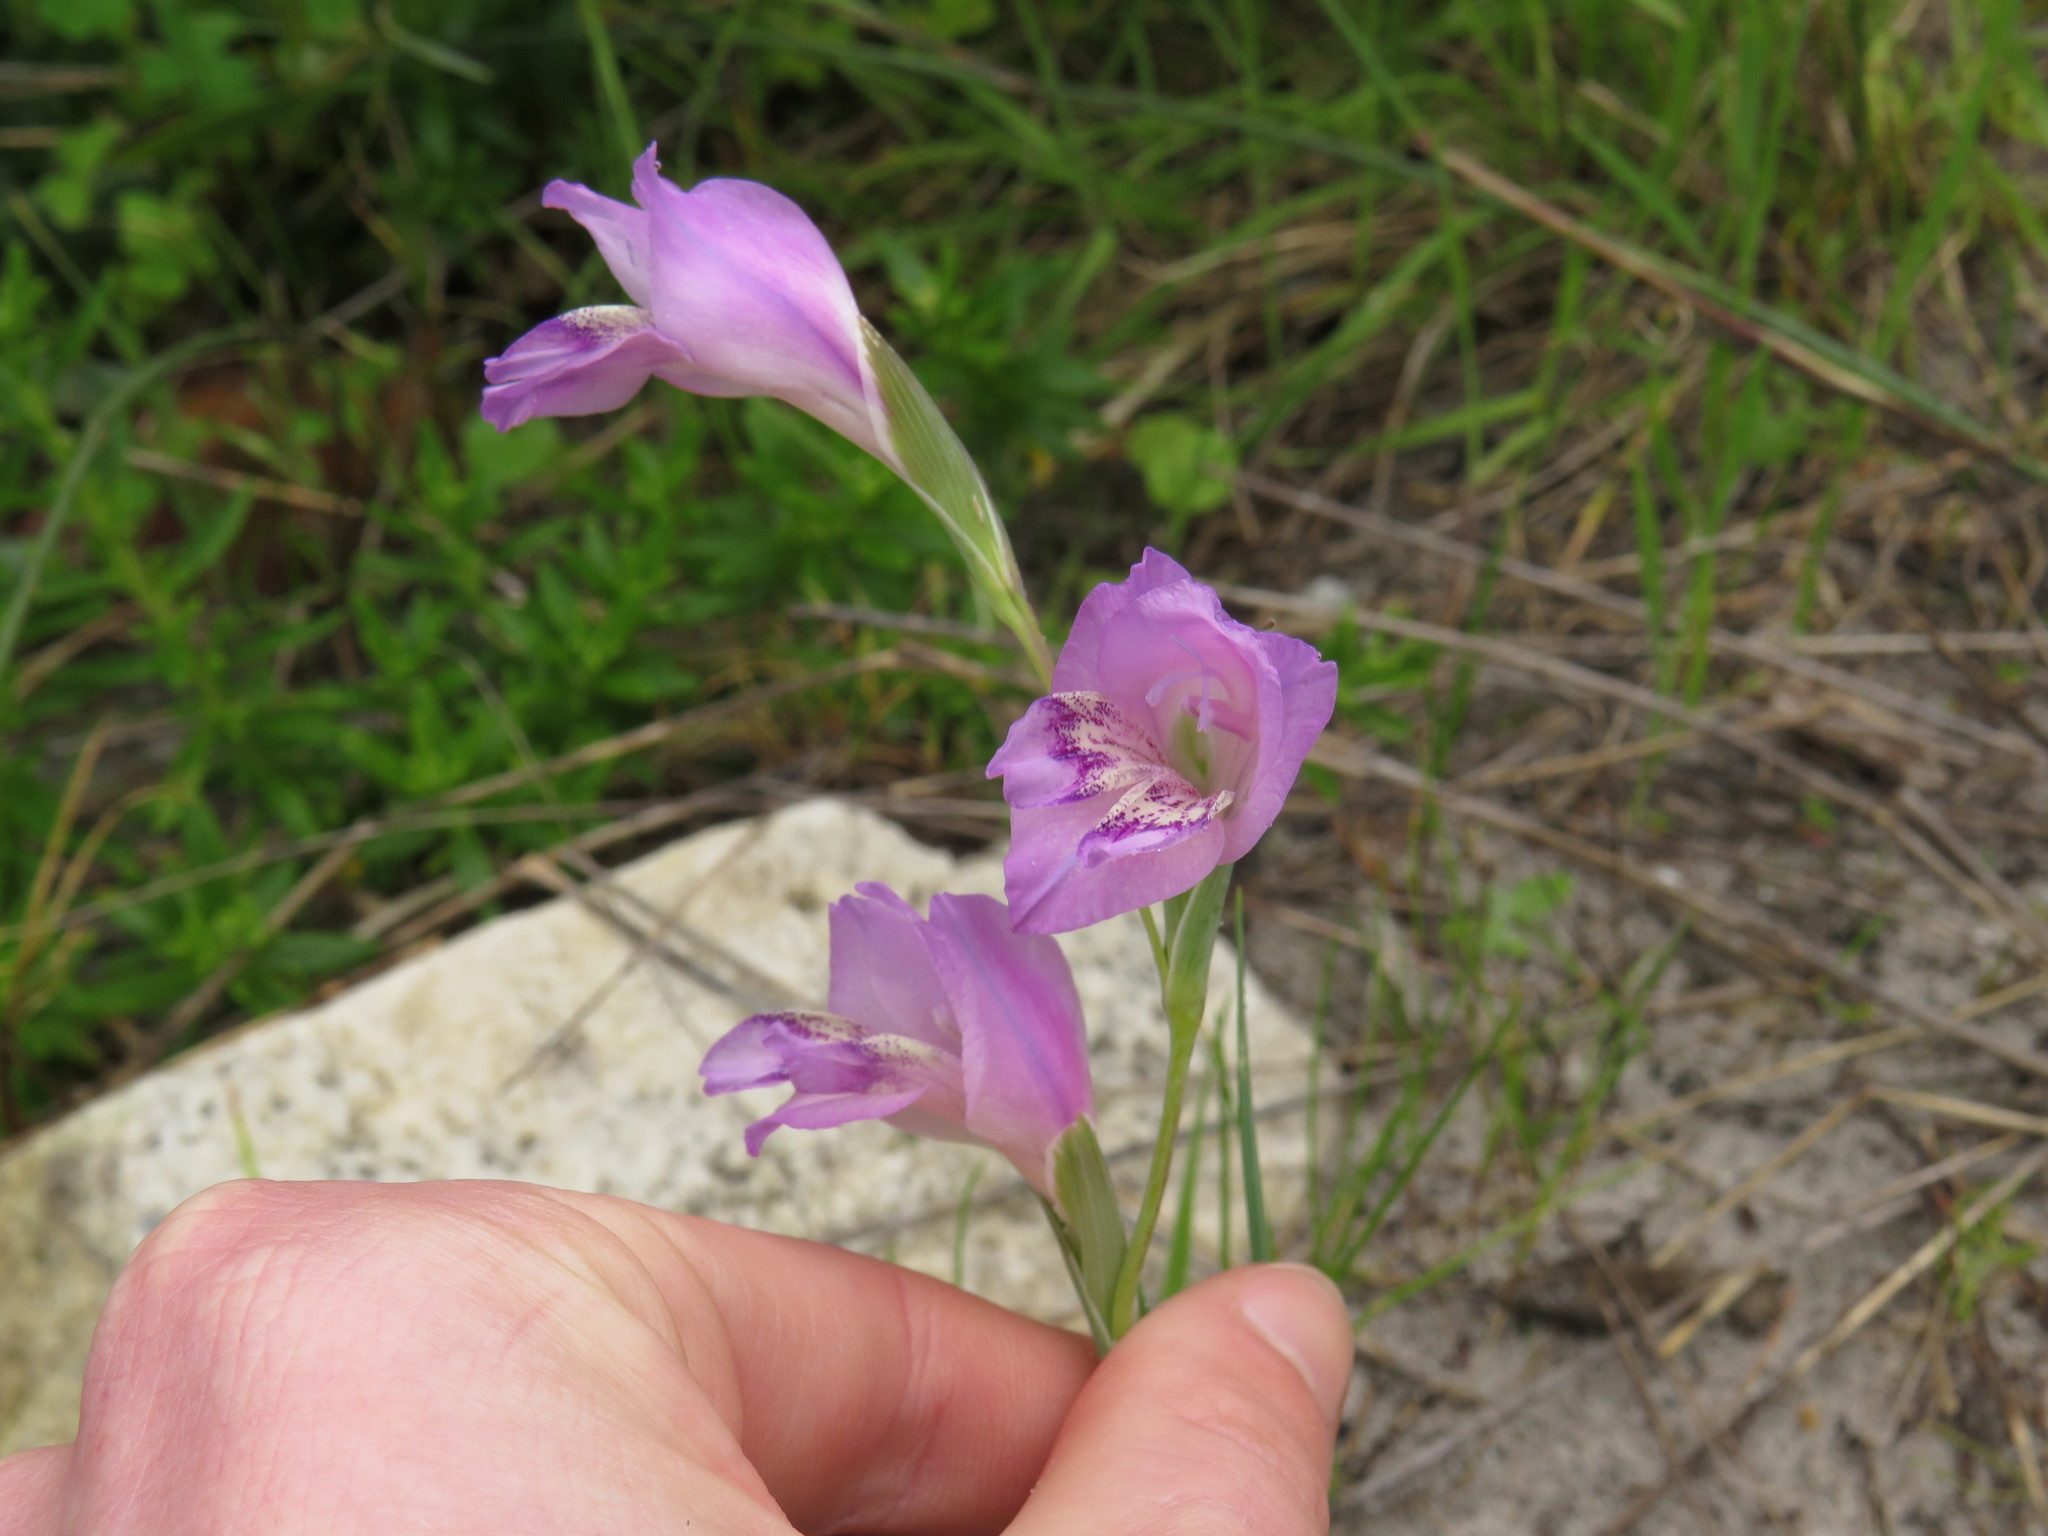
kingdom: Plantae
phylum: Tracheophyta
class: Liliopsida
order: Asparagales
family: Iridaceae
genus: Gladiolus
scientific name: Gladiolus carinatus
